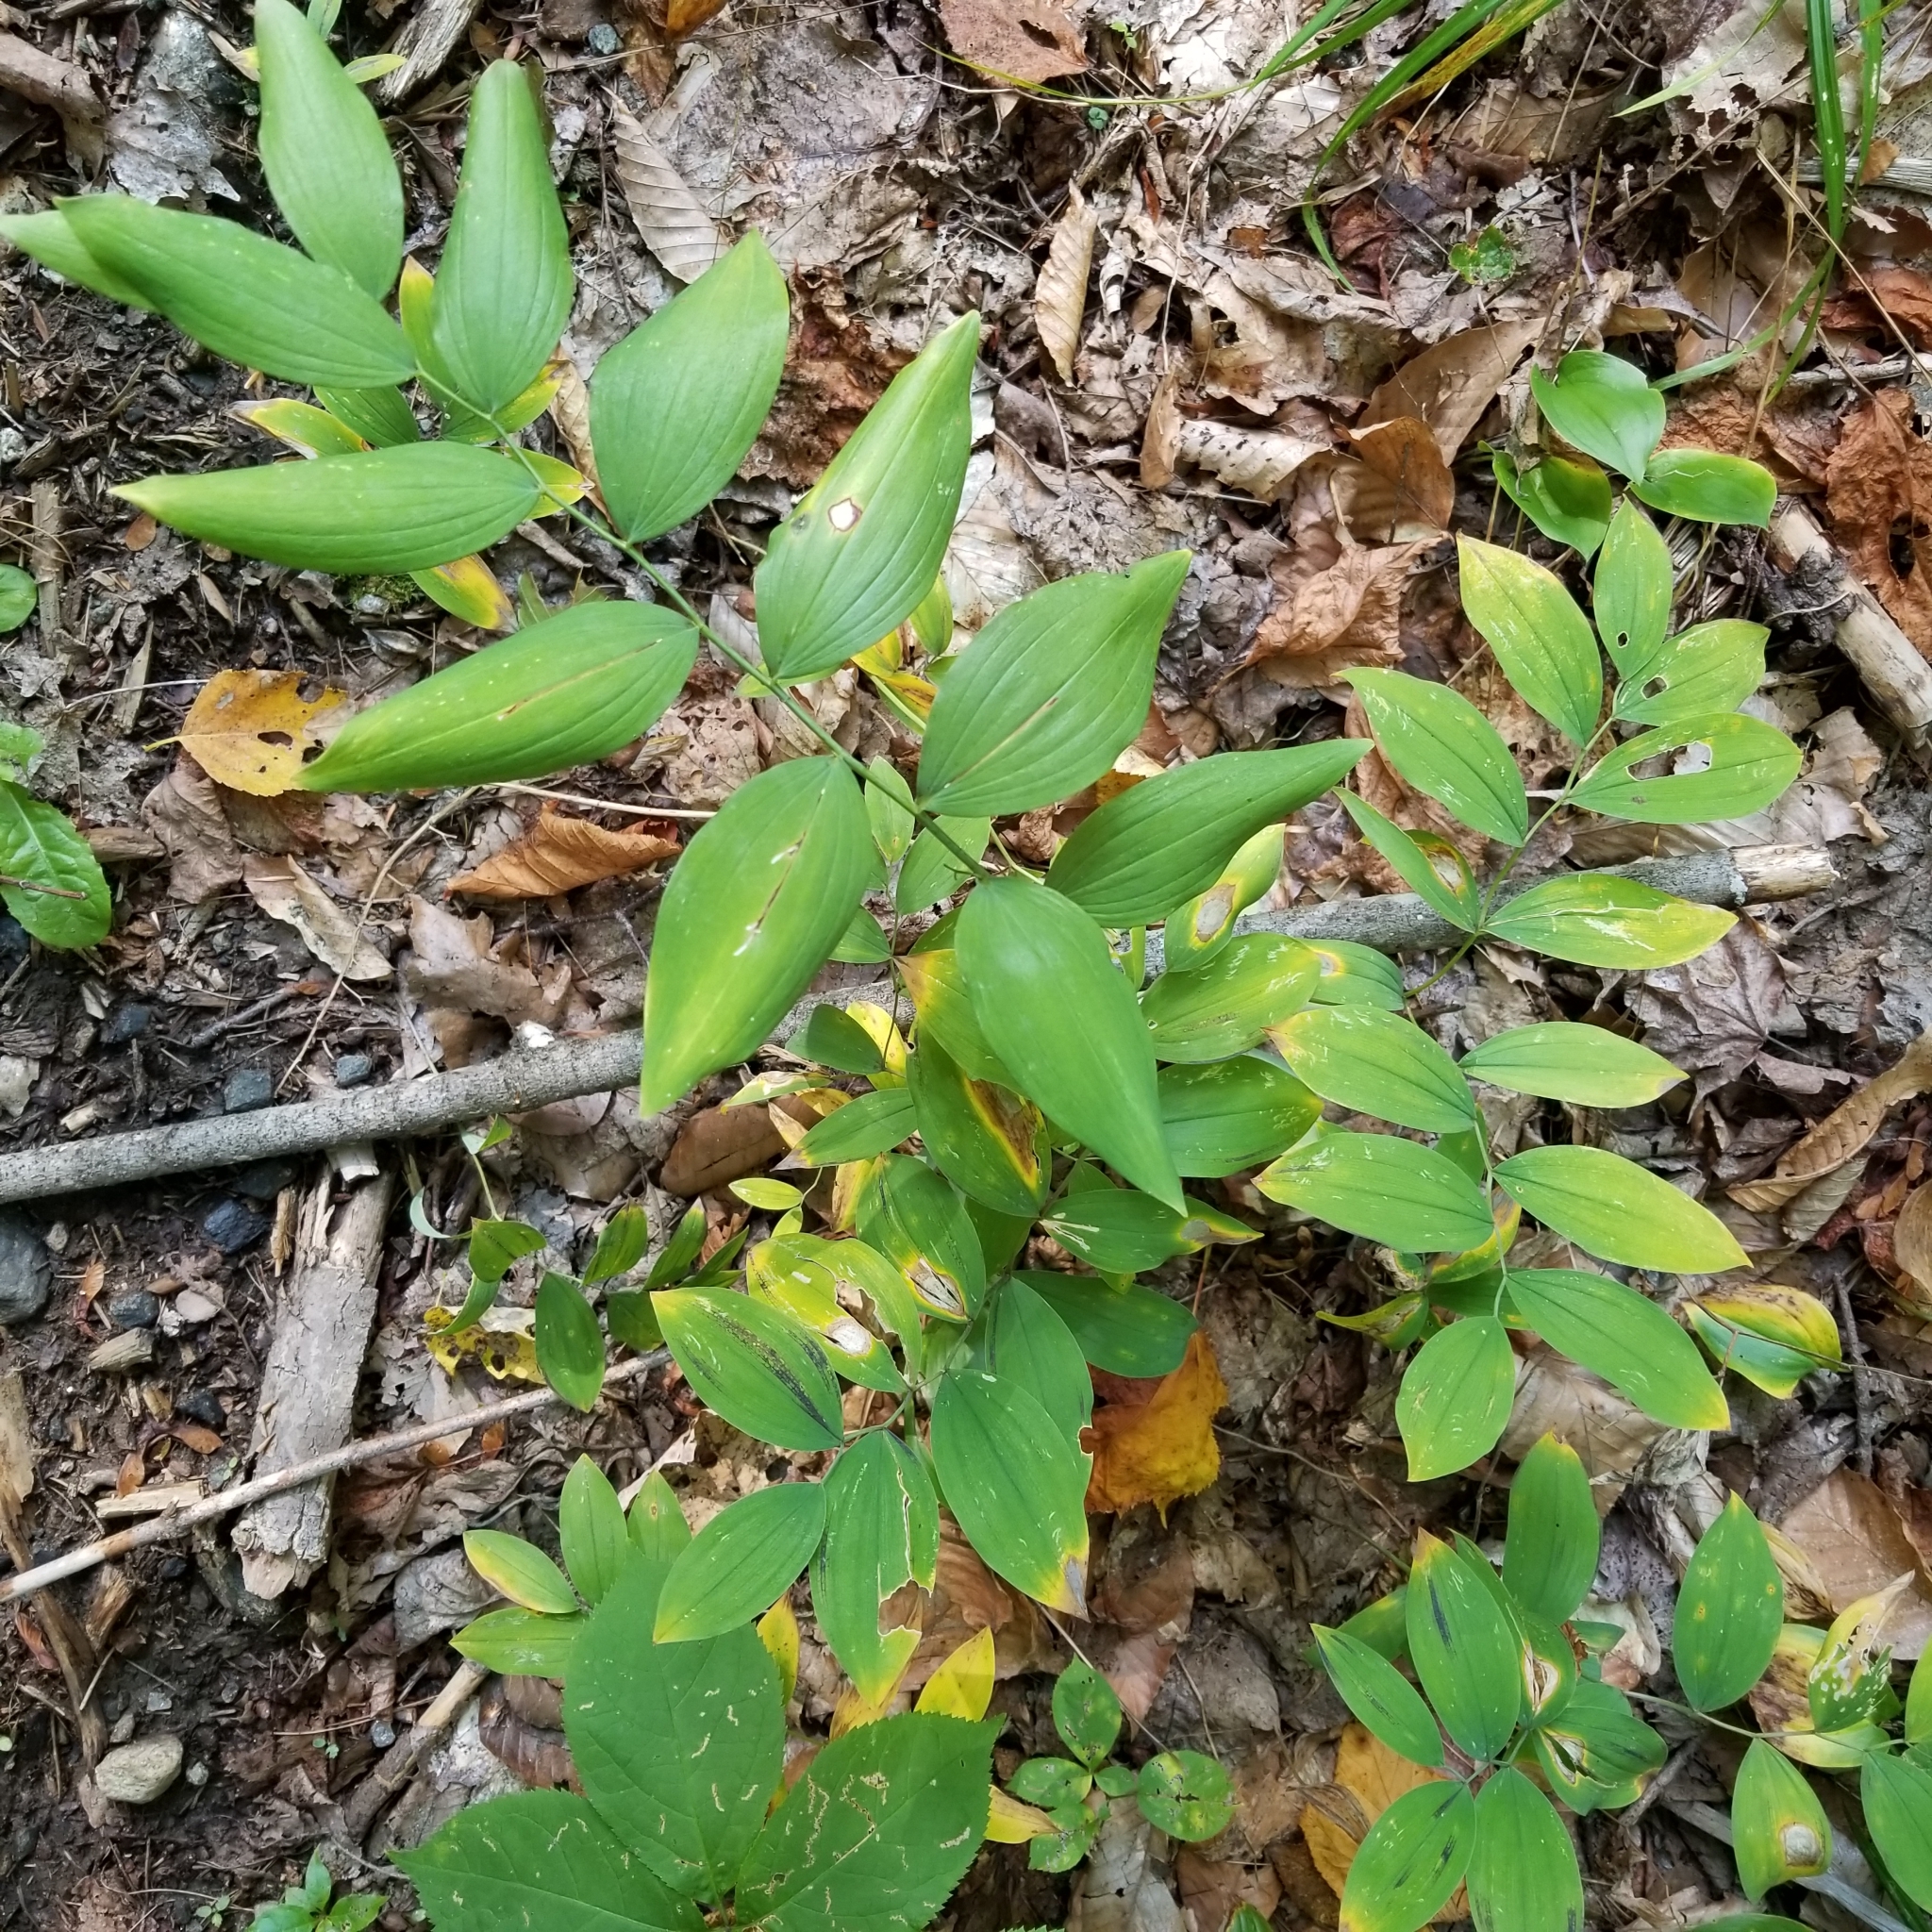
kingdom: Plantae
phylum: Tracheophyta
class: Liliopsida
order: Liliales
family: Colchicaceae
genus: Uvularia
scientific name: Uvularia sessilifolia
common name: Straw-lily
